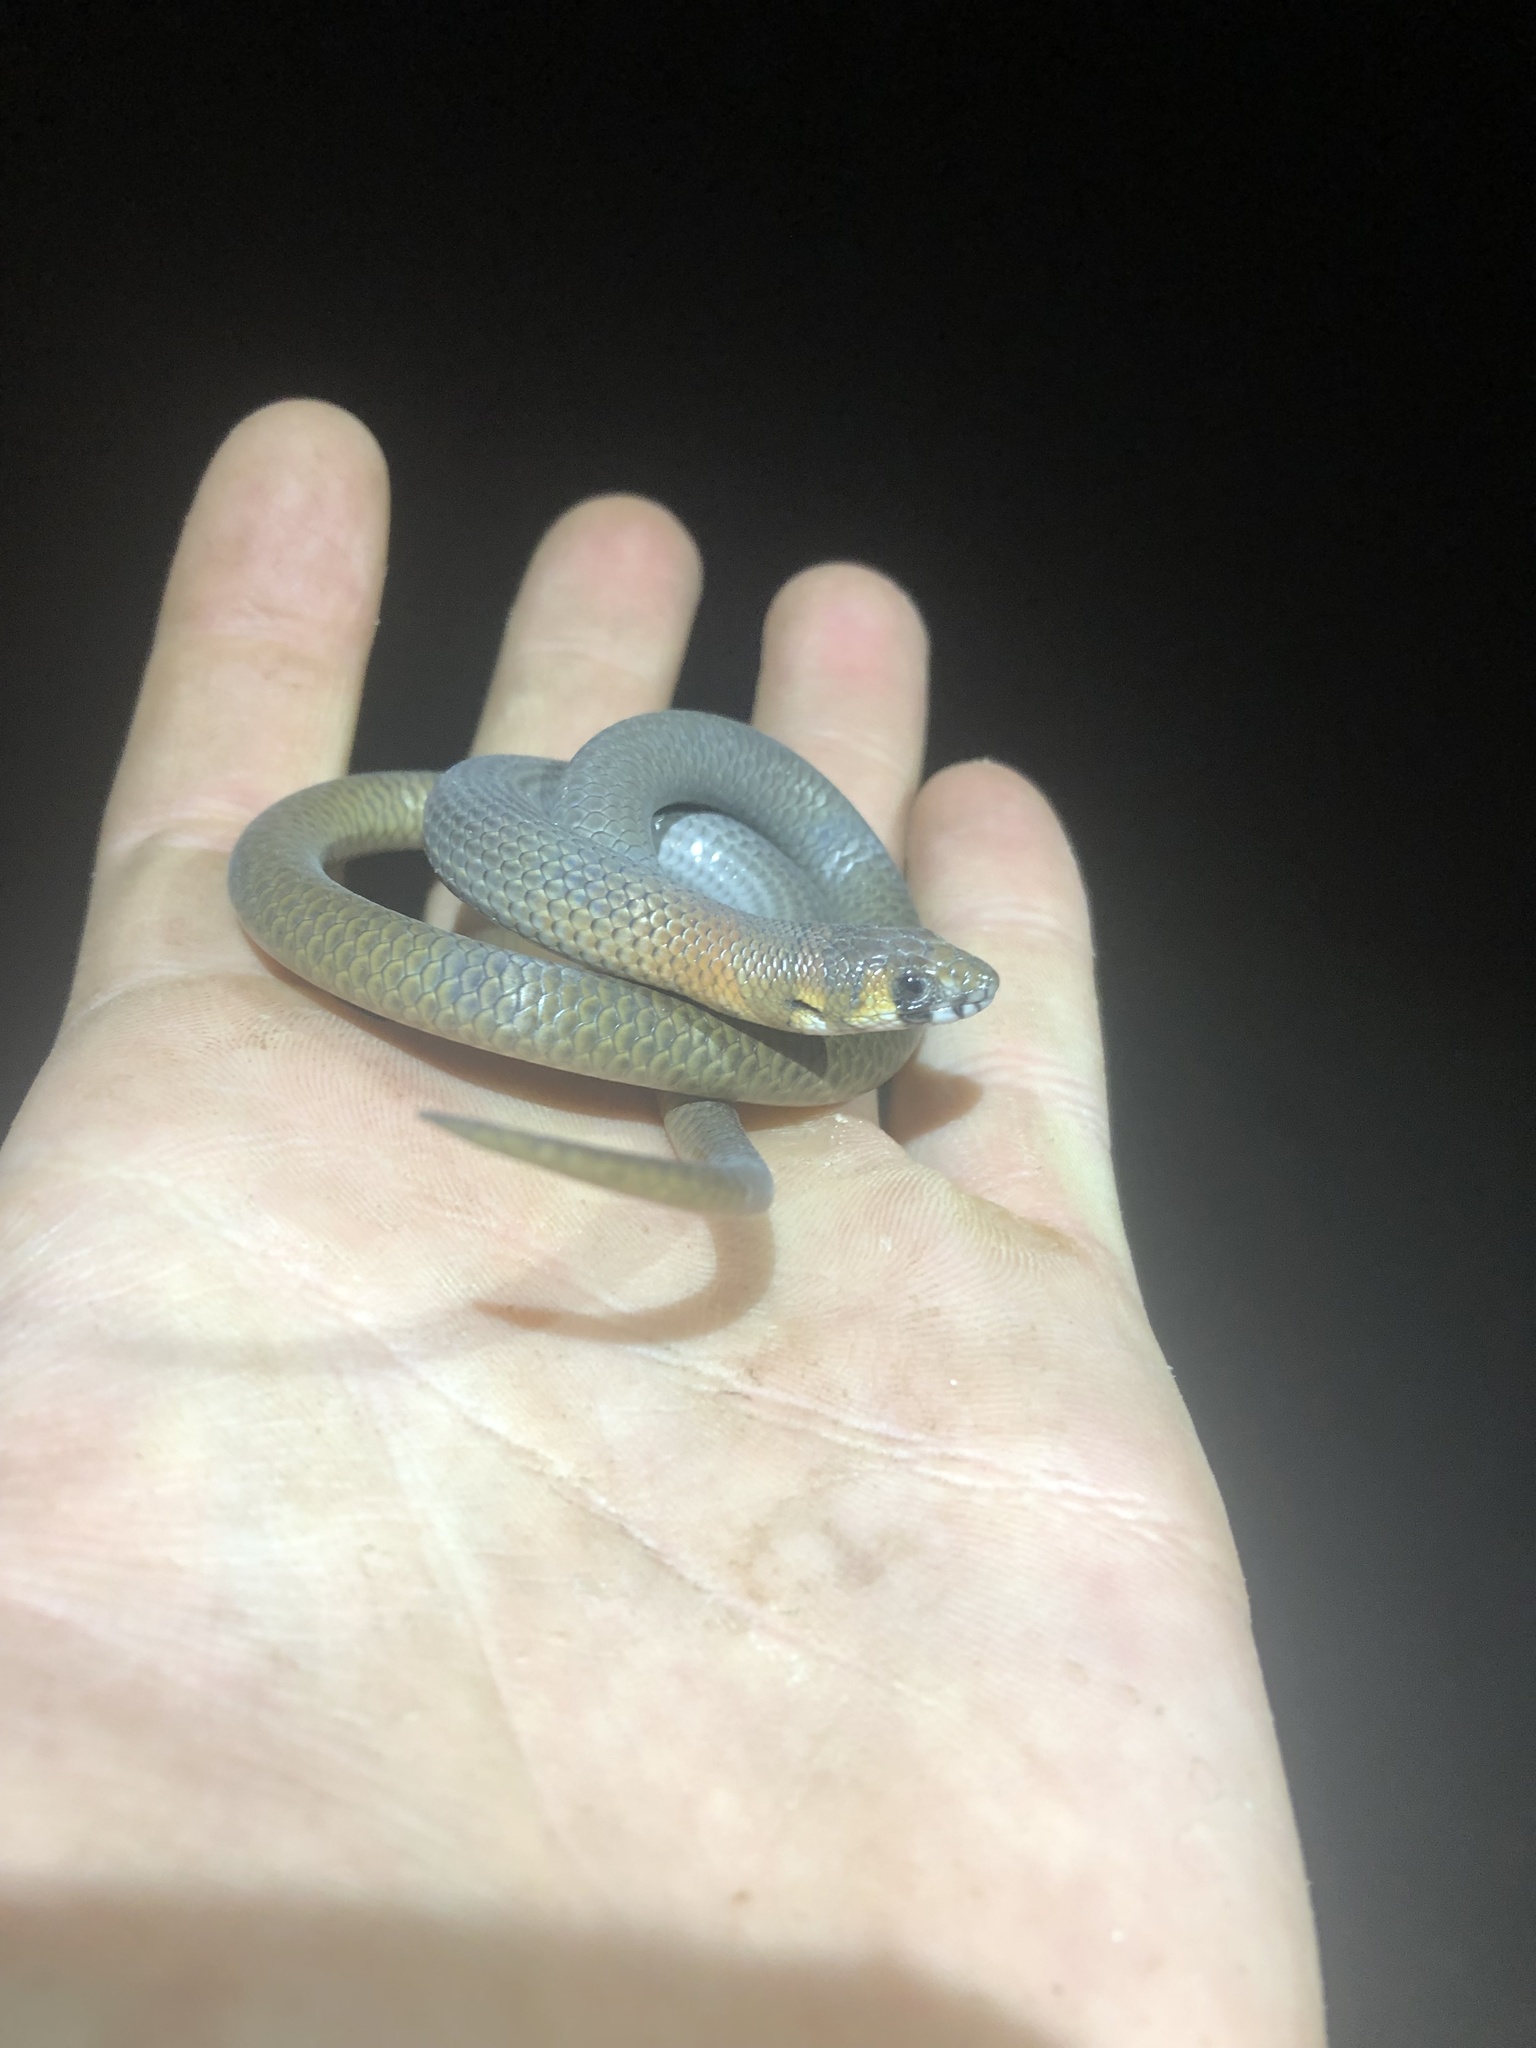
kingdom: Animalia
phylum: Chordata
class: Squamata
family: Pygopodidae
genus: Delma
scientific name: Delma petersoni
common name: Painted delma
